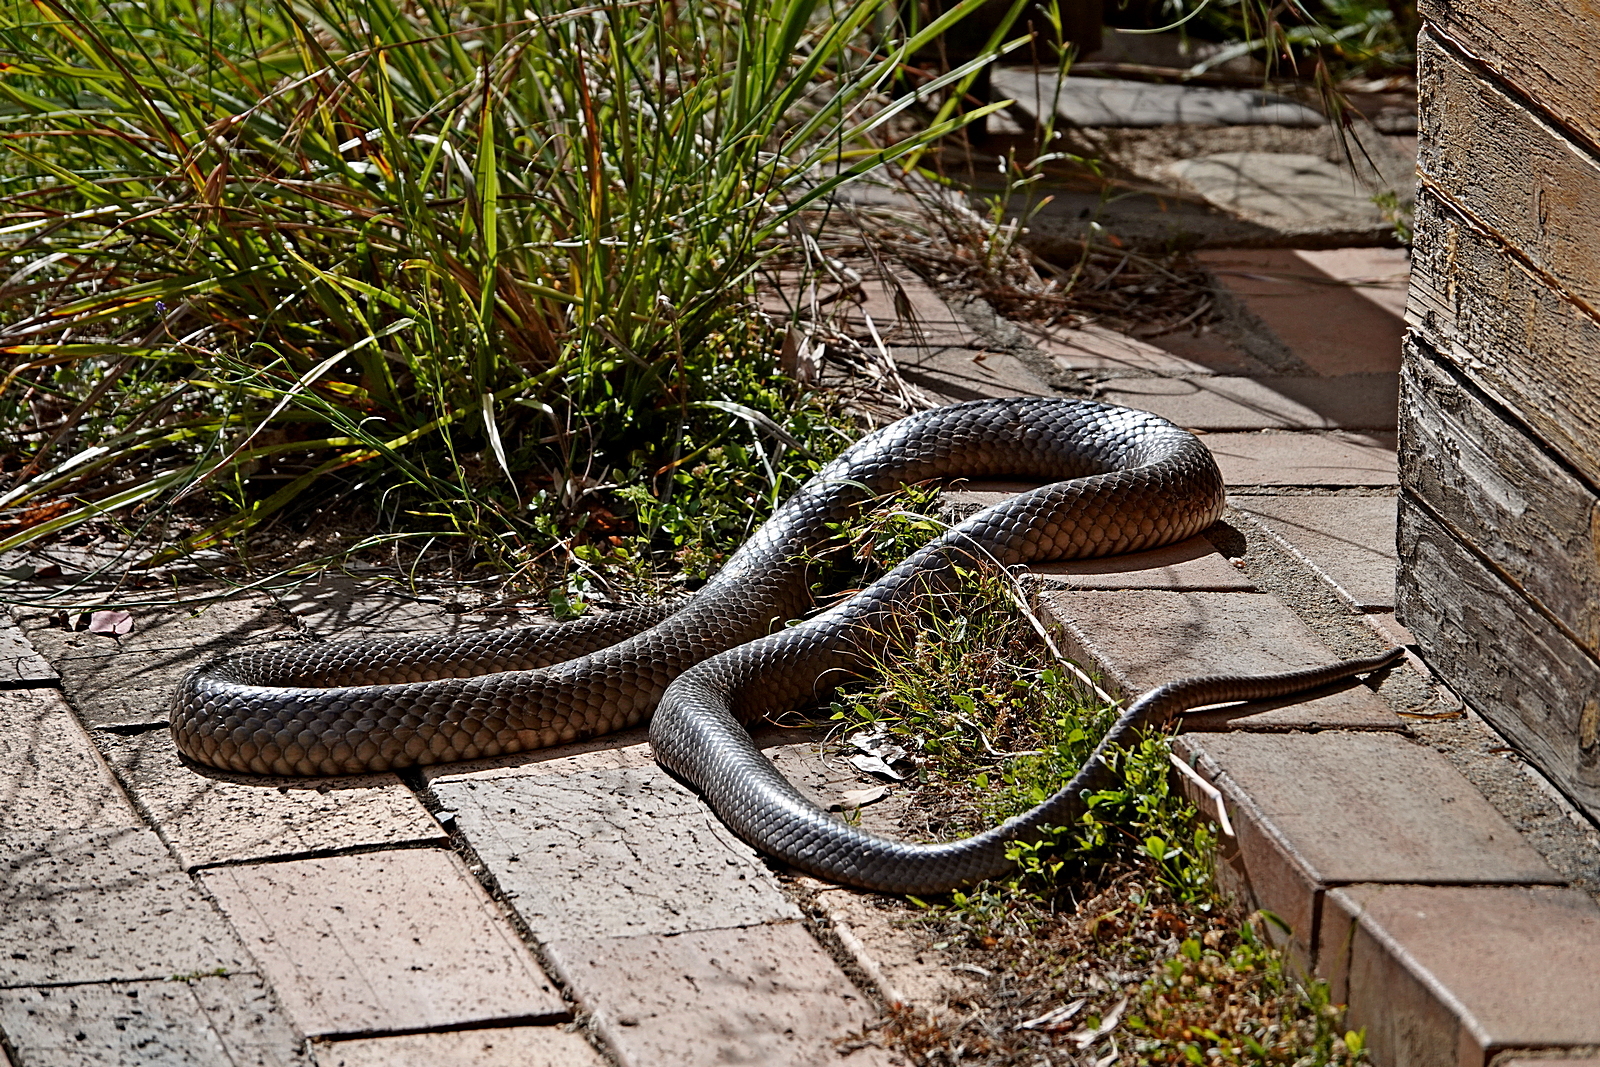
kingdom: Animalia
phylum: Chordata
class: Squamata
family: Elapidae
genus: Pseudonaja
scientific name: Pseudonaja textilis
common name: Eastern brown snake
